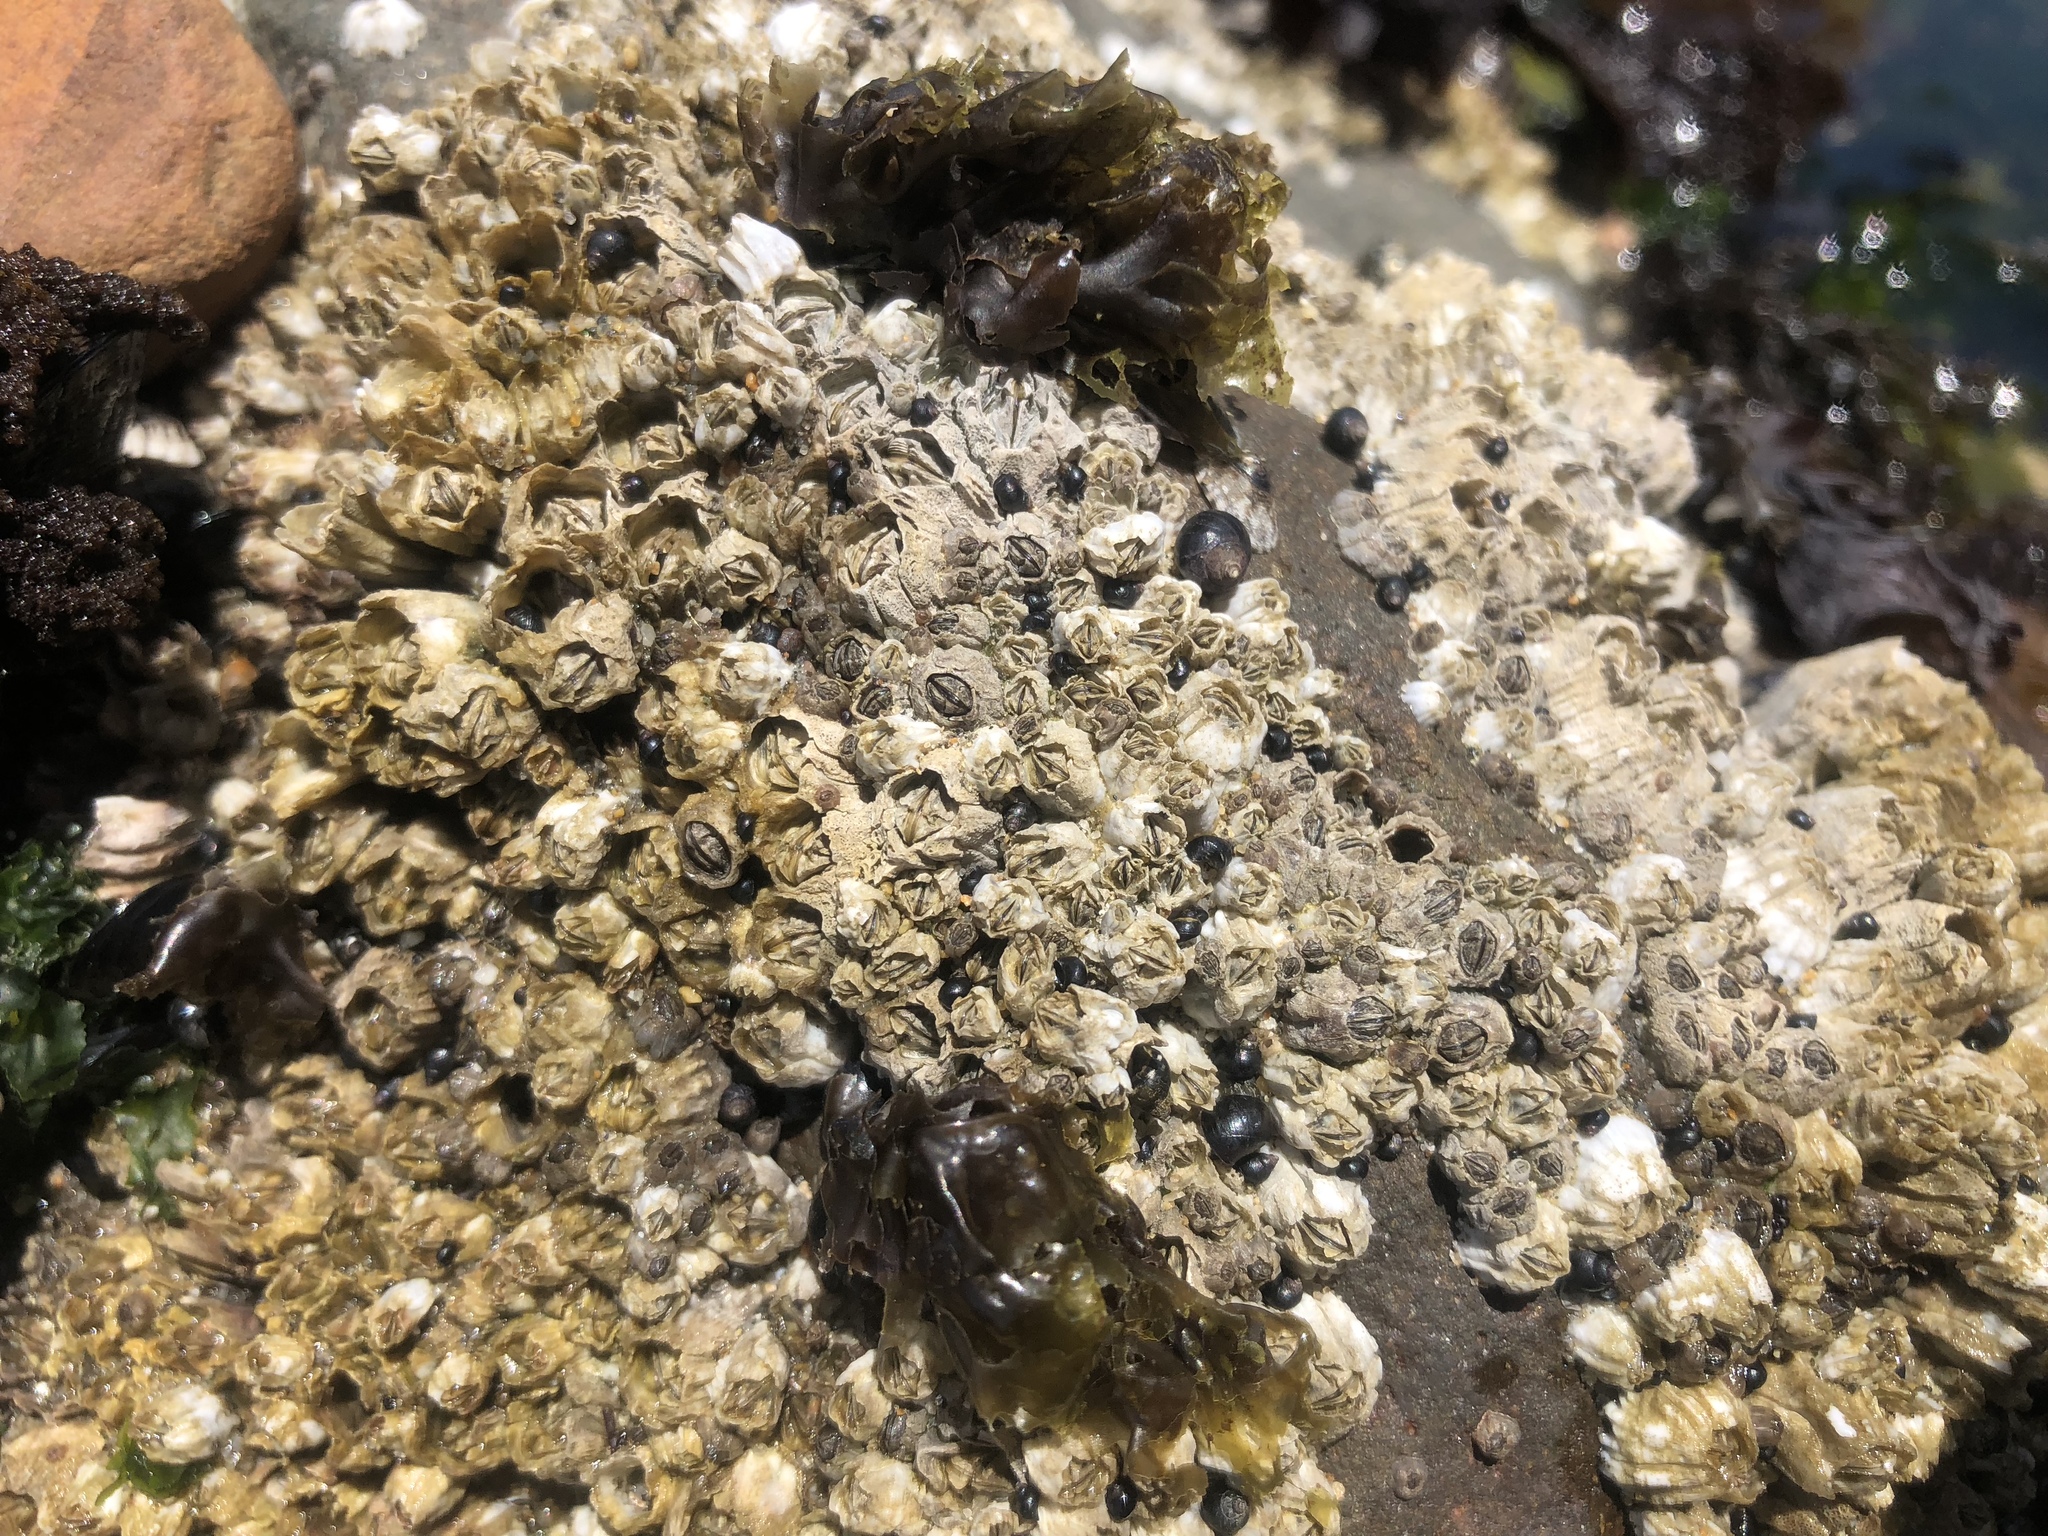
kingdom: Animalia
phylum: Arthropoda
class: Maxillopoda
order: Sessilia
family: Balanidae
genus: Balanus
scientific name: Balanus glandula
